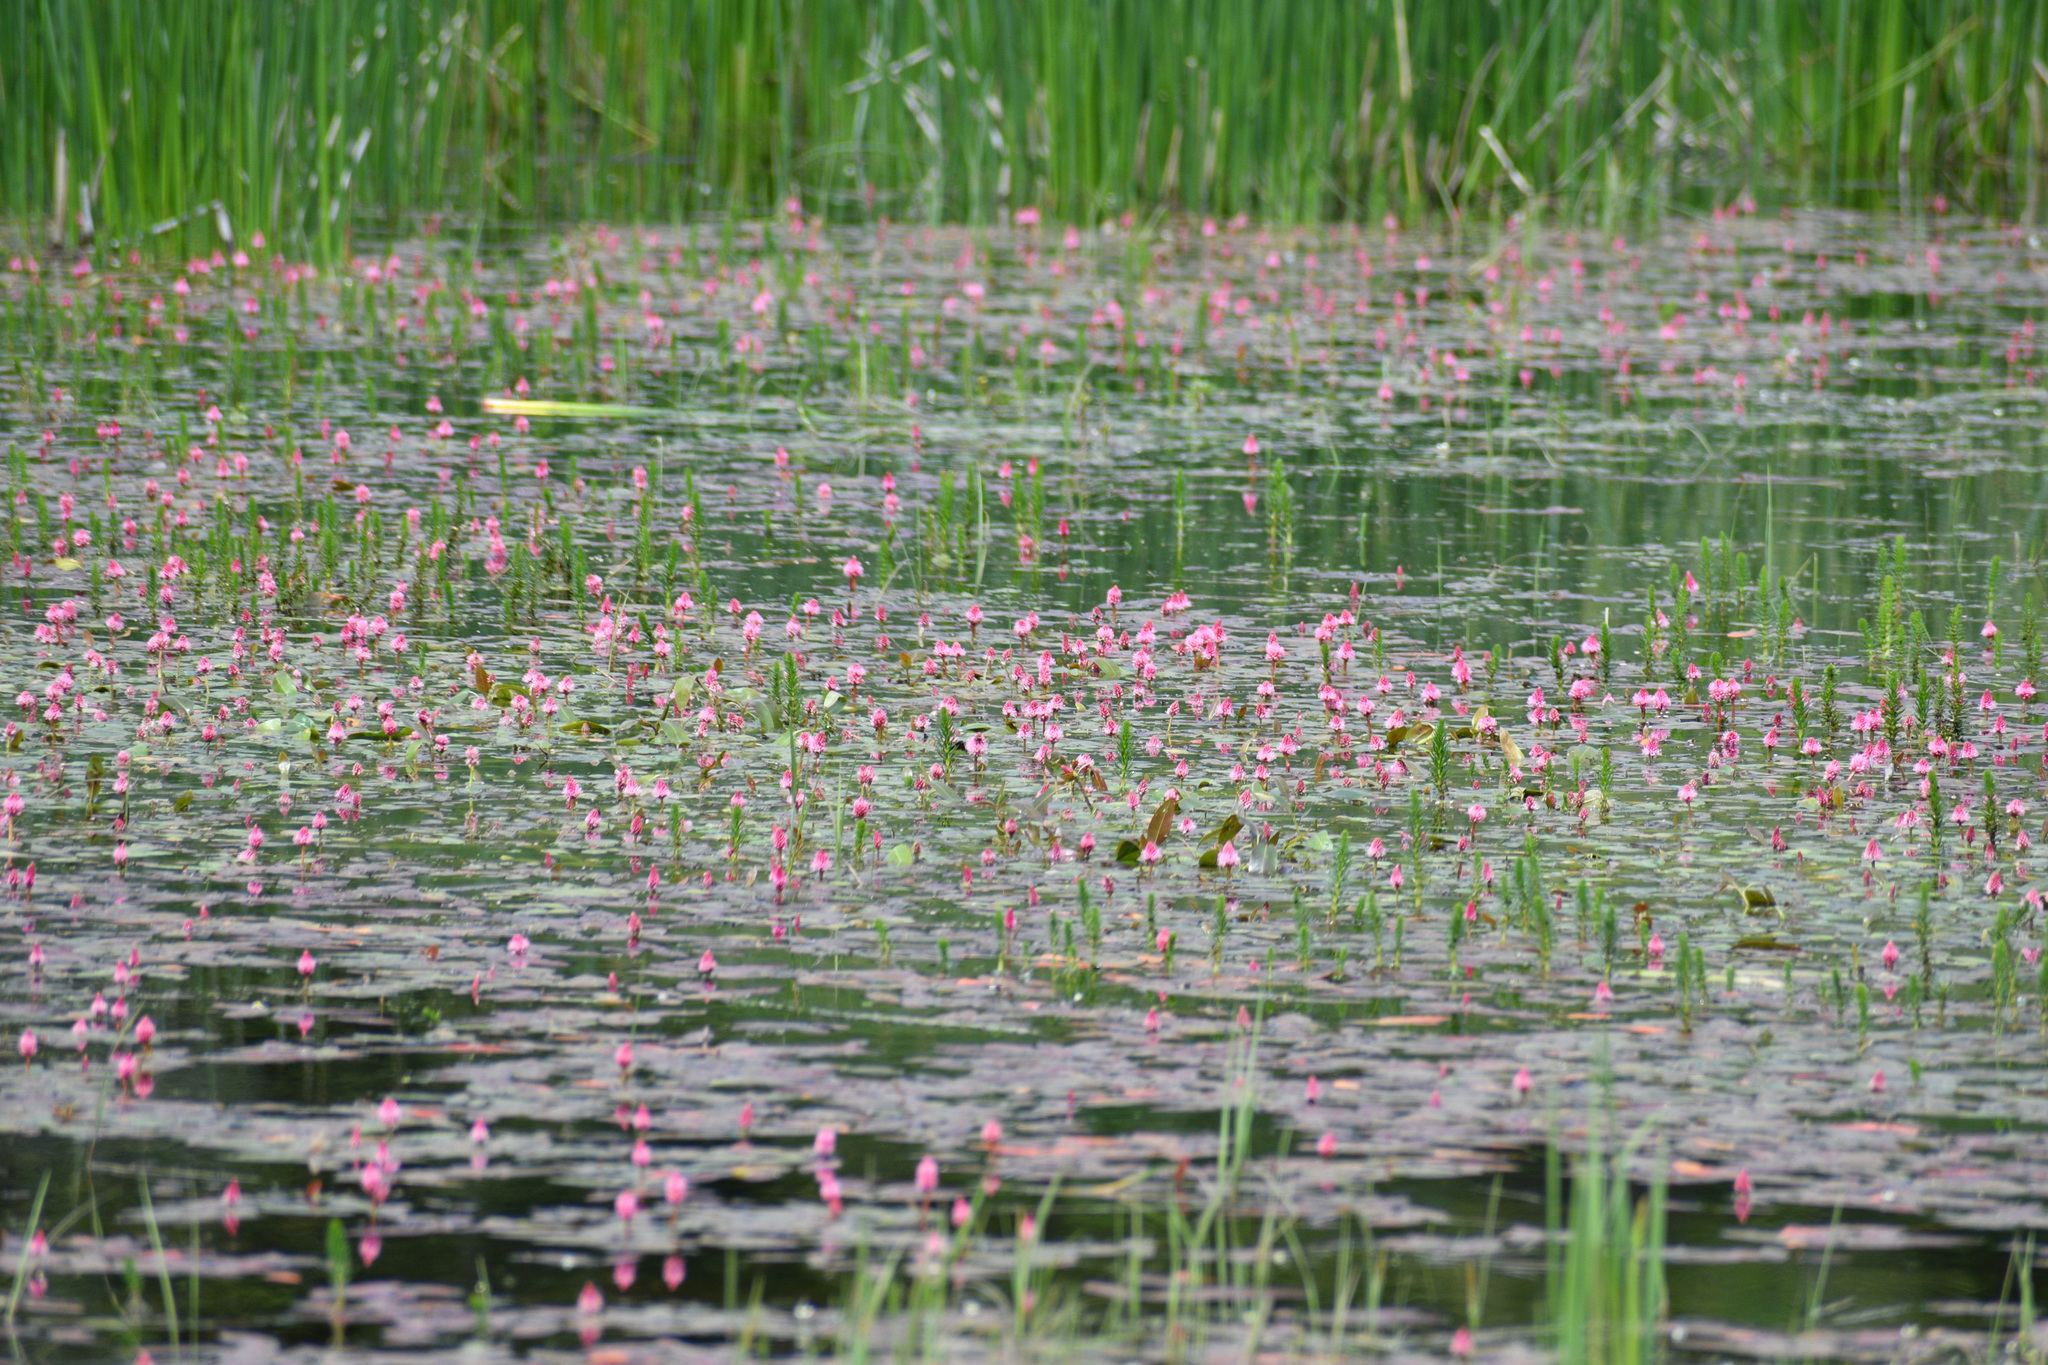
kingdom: Plantae
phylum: Tracheophyta
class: Magnoliopsida
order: Caryophyllales
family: Polygonaceae
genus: Persicaria
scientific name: Persicaria amphibia
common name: Amphibious bistort
